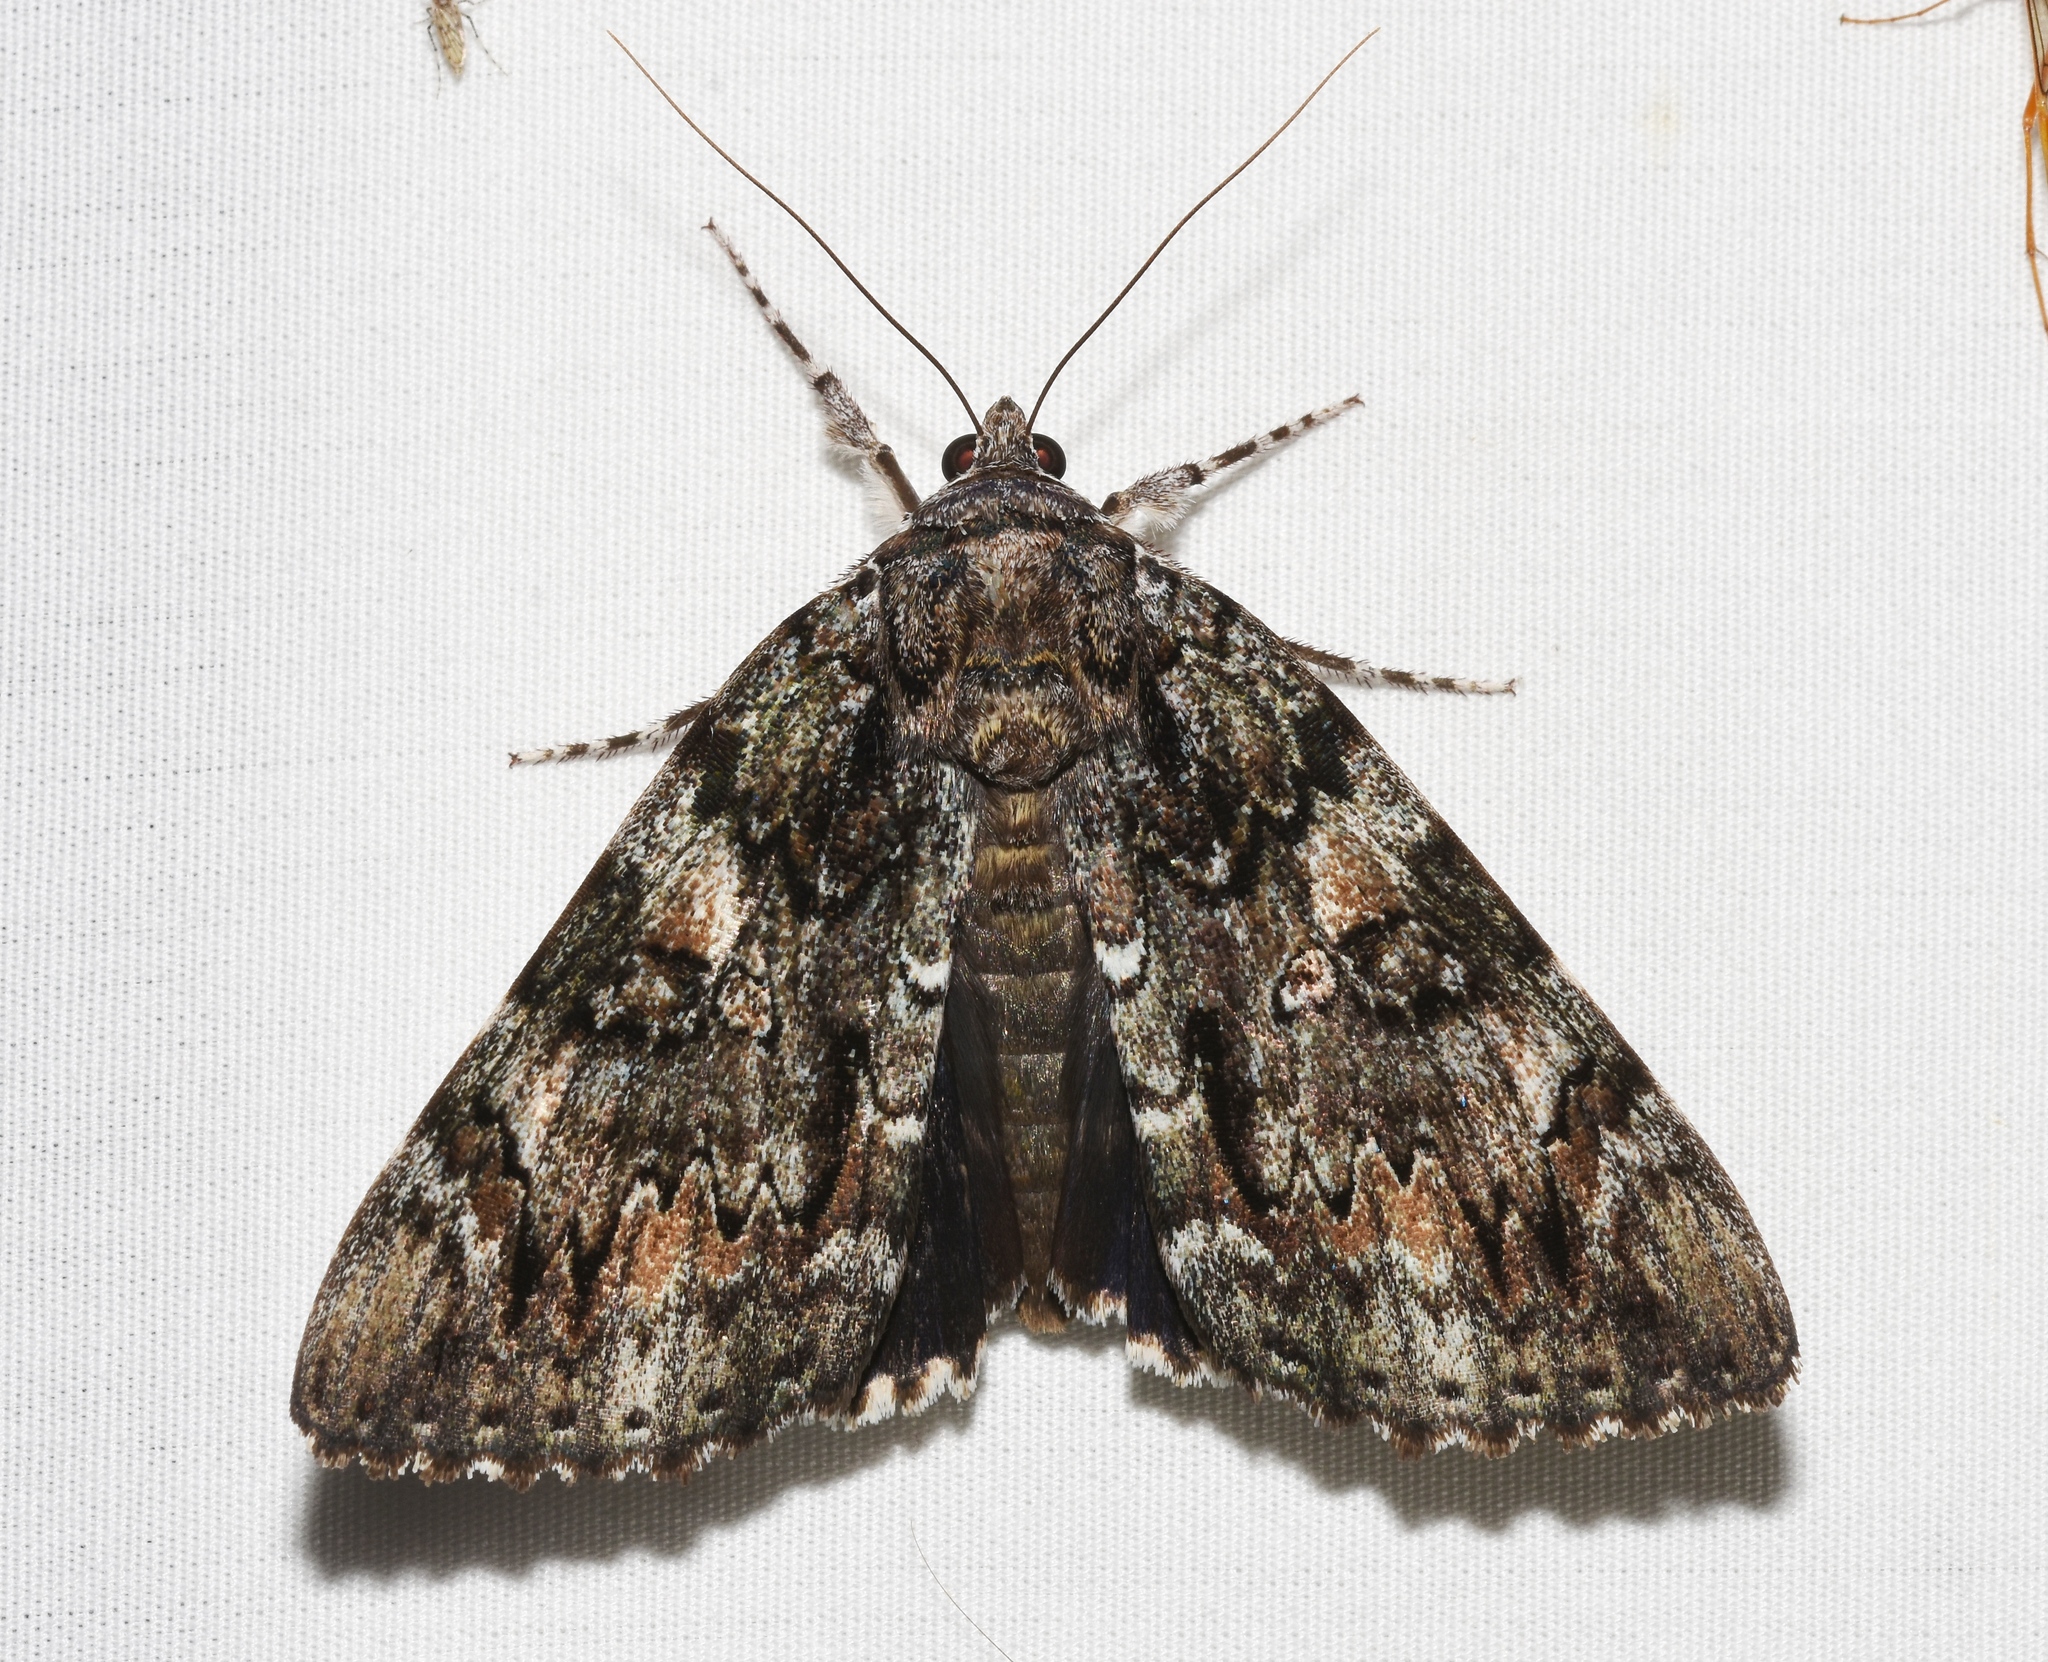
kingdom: Animalia
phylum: Arthropoda
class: Insecta
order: Lepidoptera
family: Erebidae
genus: Catocala
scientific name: Catocala lacrymosa
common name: Tearful underwing
